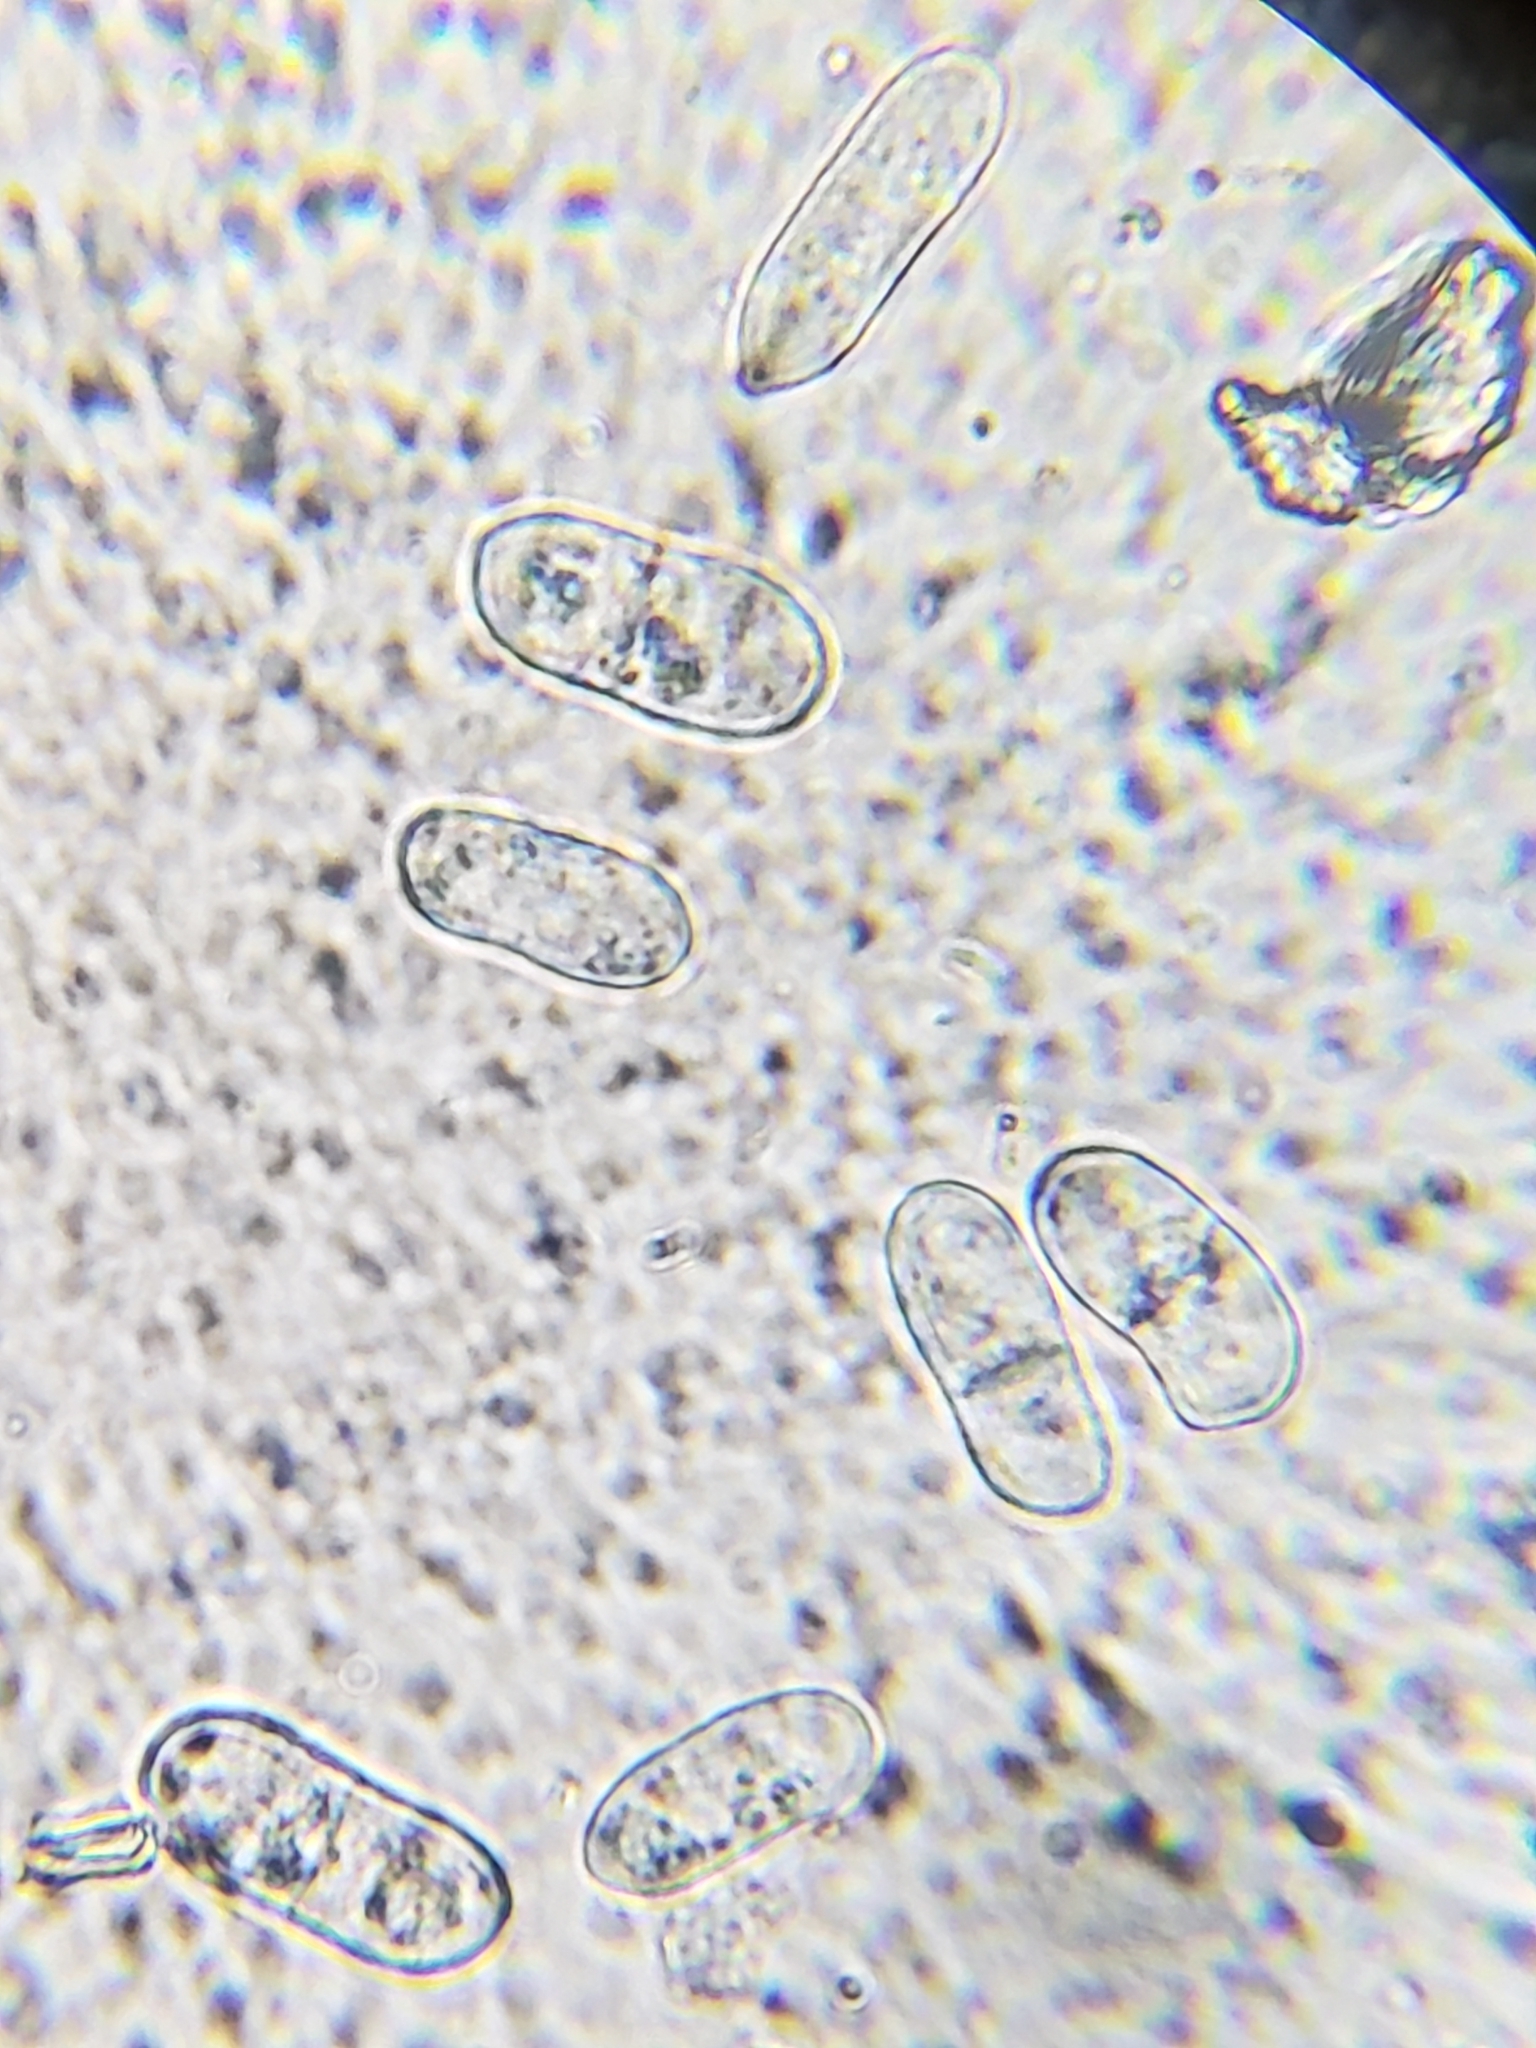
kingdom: Fungi
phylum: Ascomycota
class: Sordariomycetes
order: Hypocreales
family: Hypocreaceae
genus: Hypomyces
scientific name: Hypomyces aurantius
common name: Orange polypore mould
